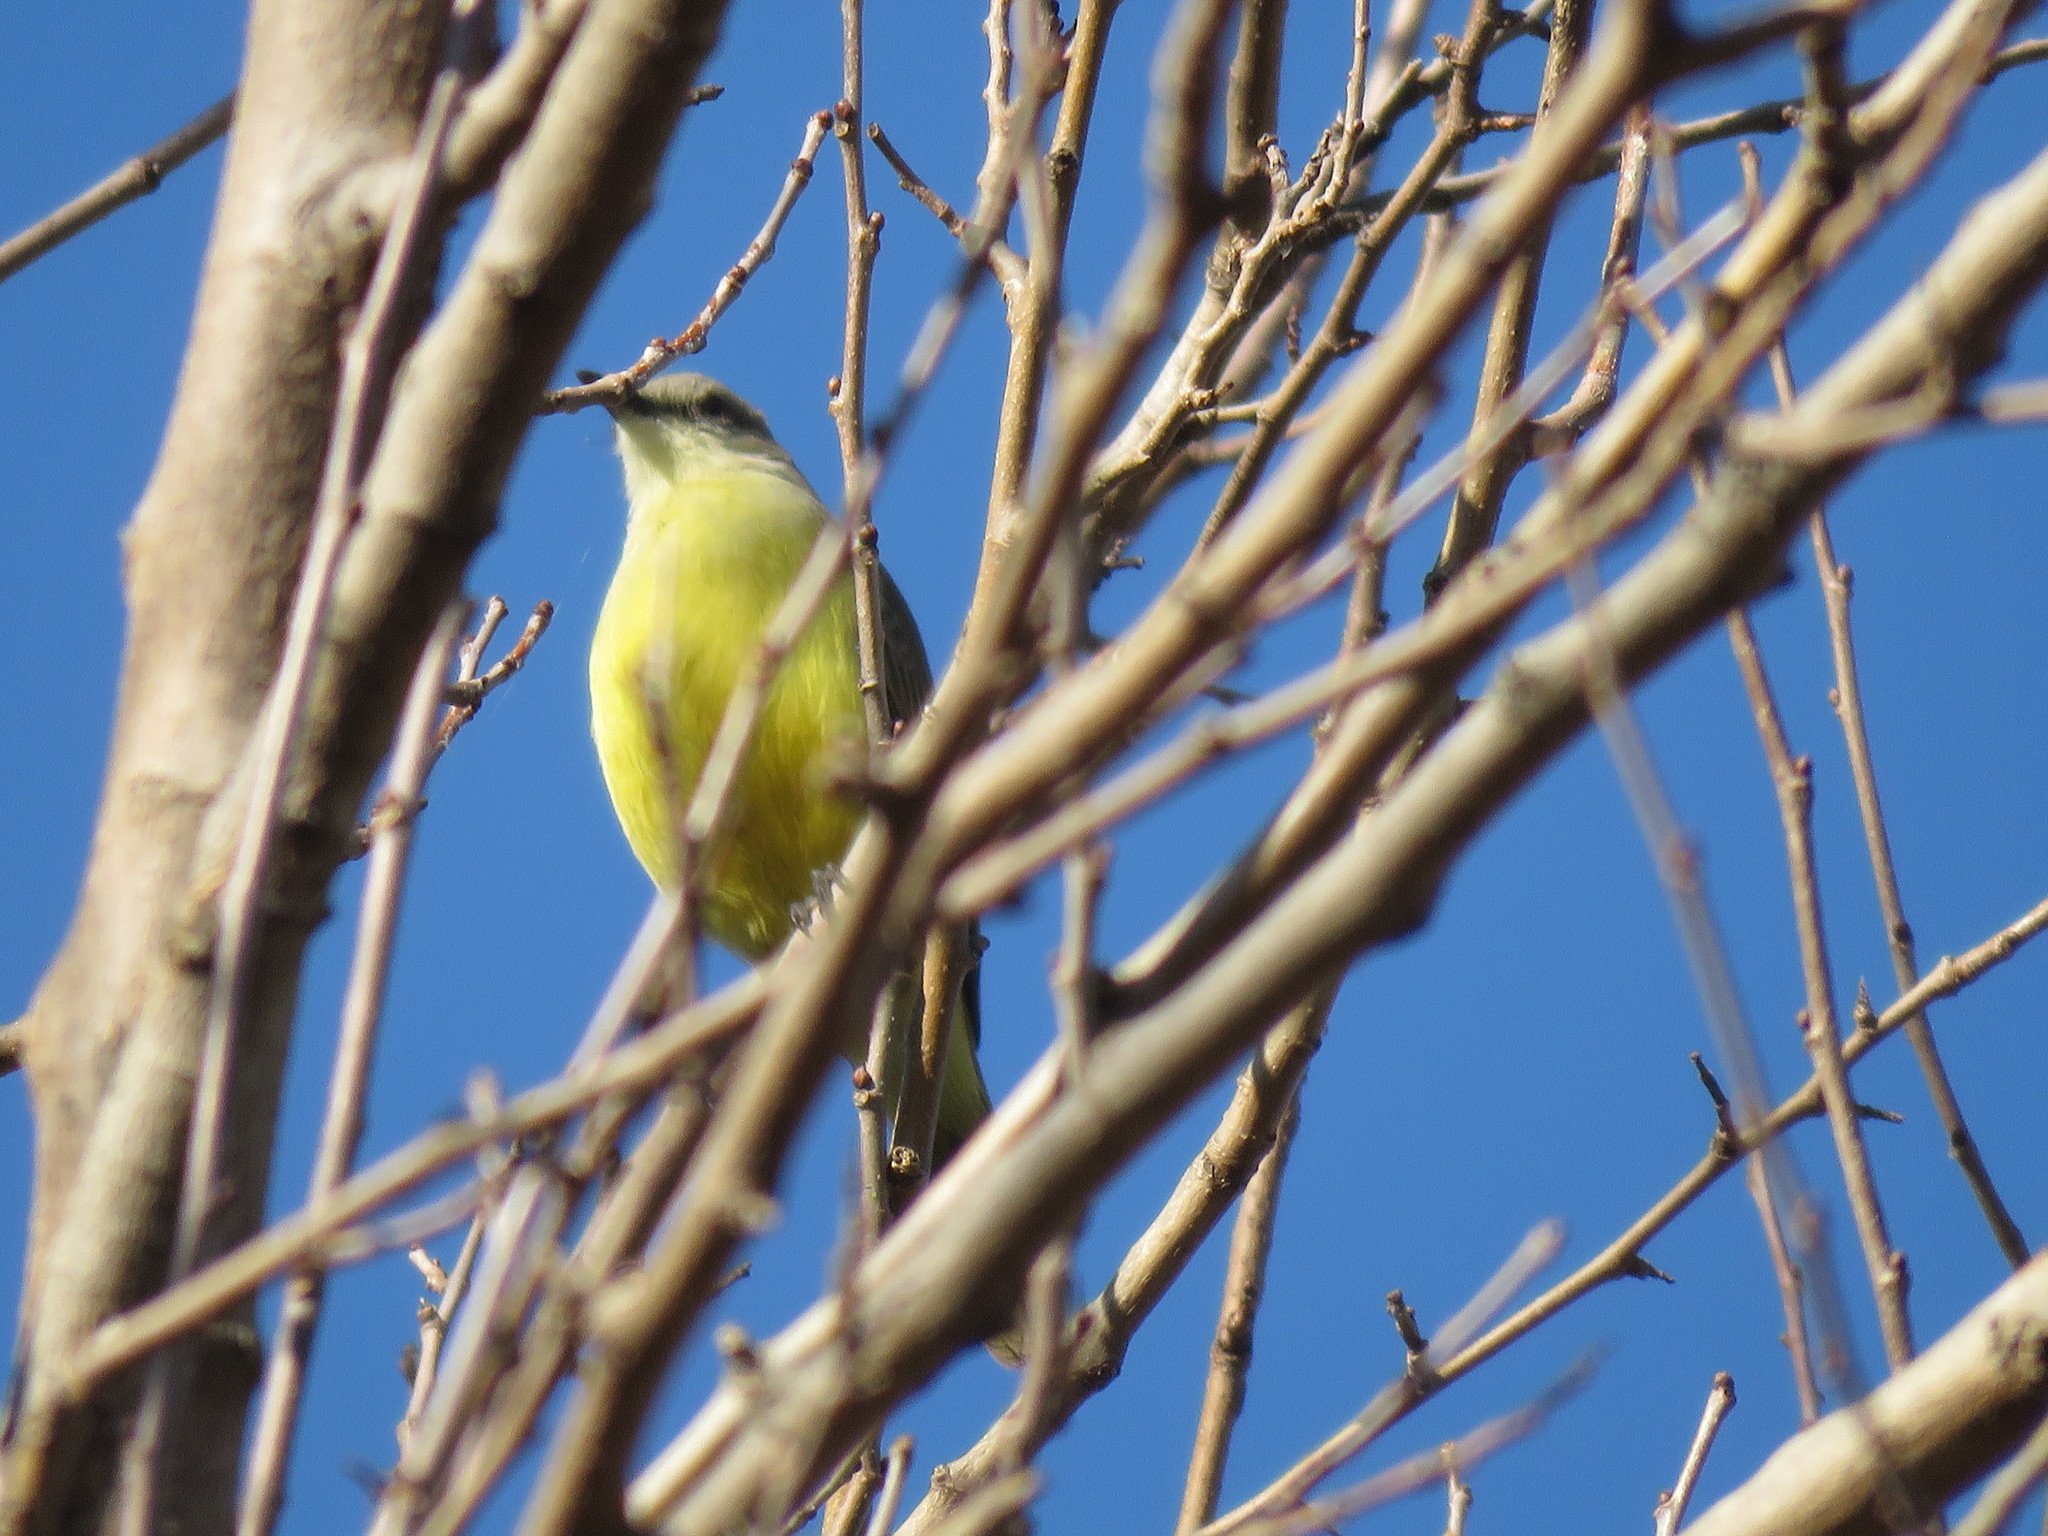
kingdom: Animalia
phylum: Chordata
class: Aves
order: Passeriformes
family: Tyrannidae
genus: Machetornis
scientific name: Machetornis rixosa
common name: Cattle tyrant
